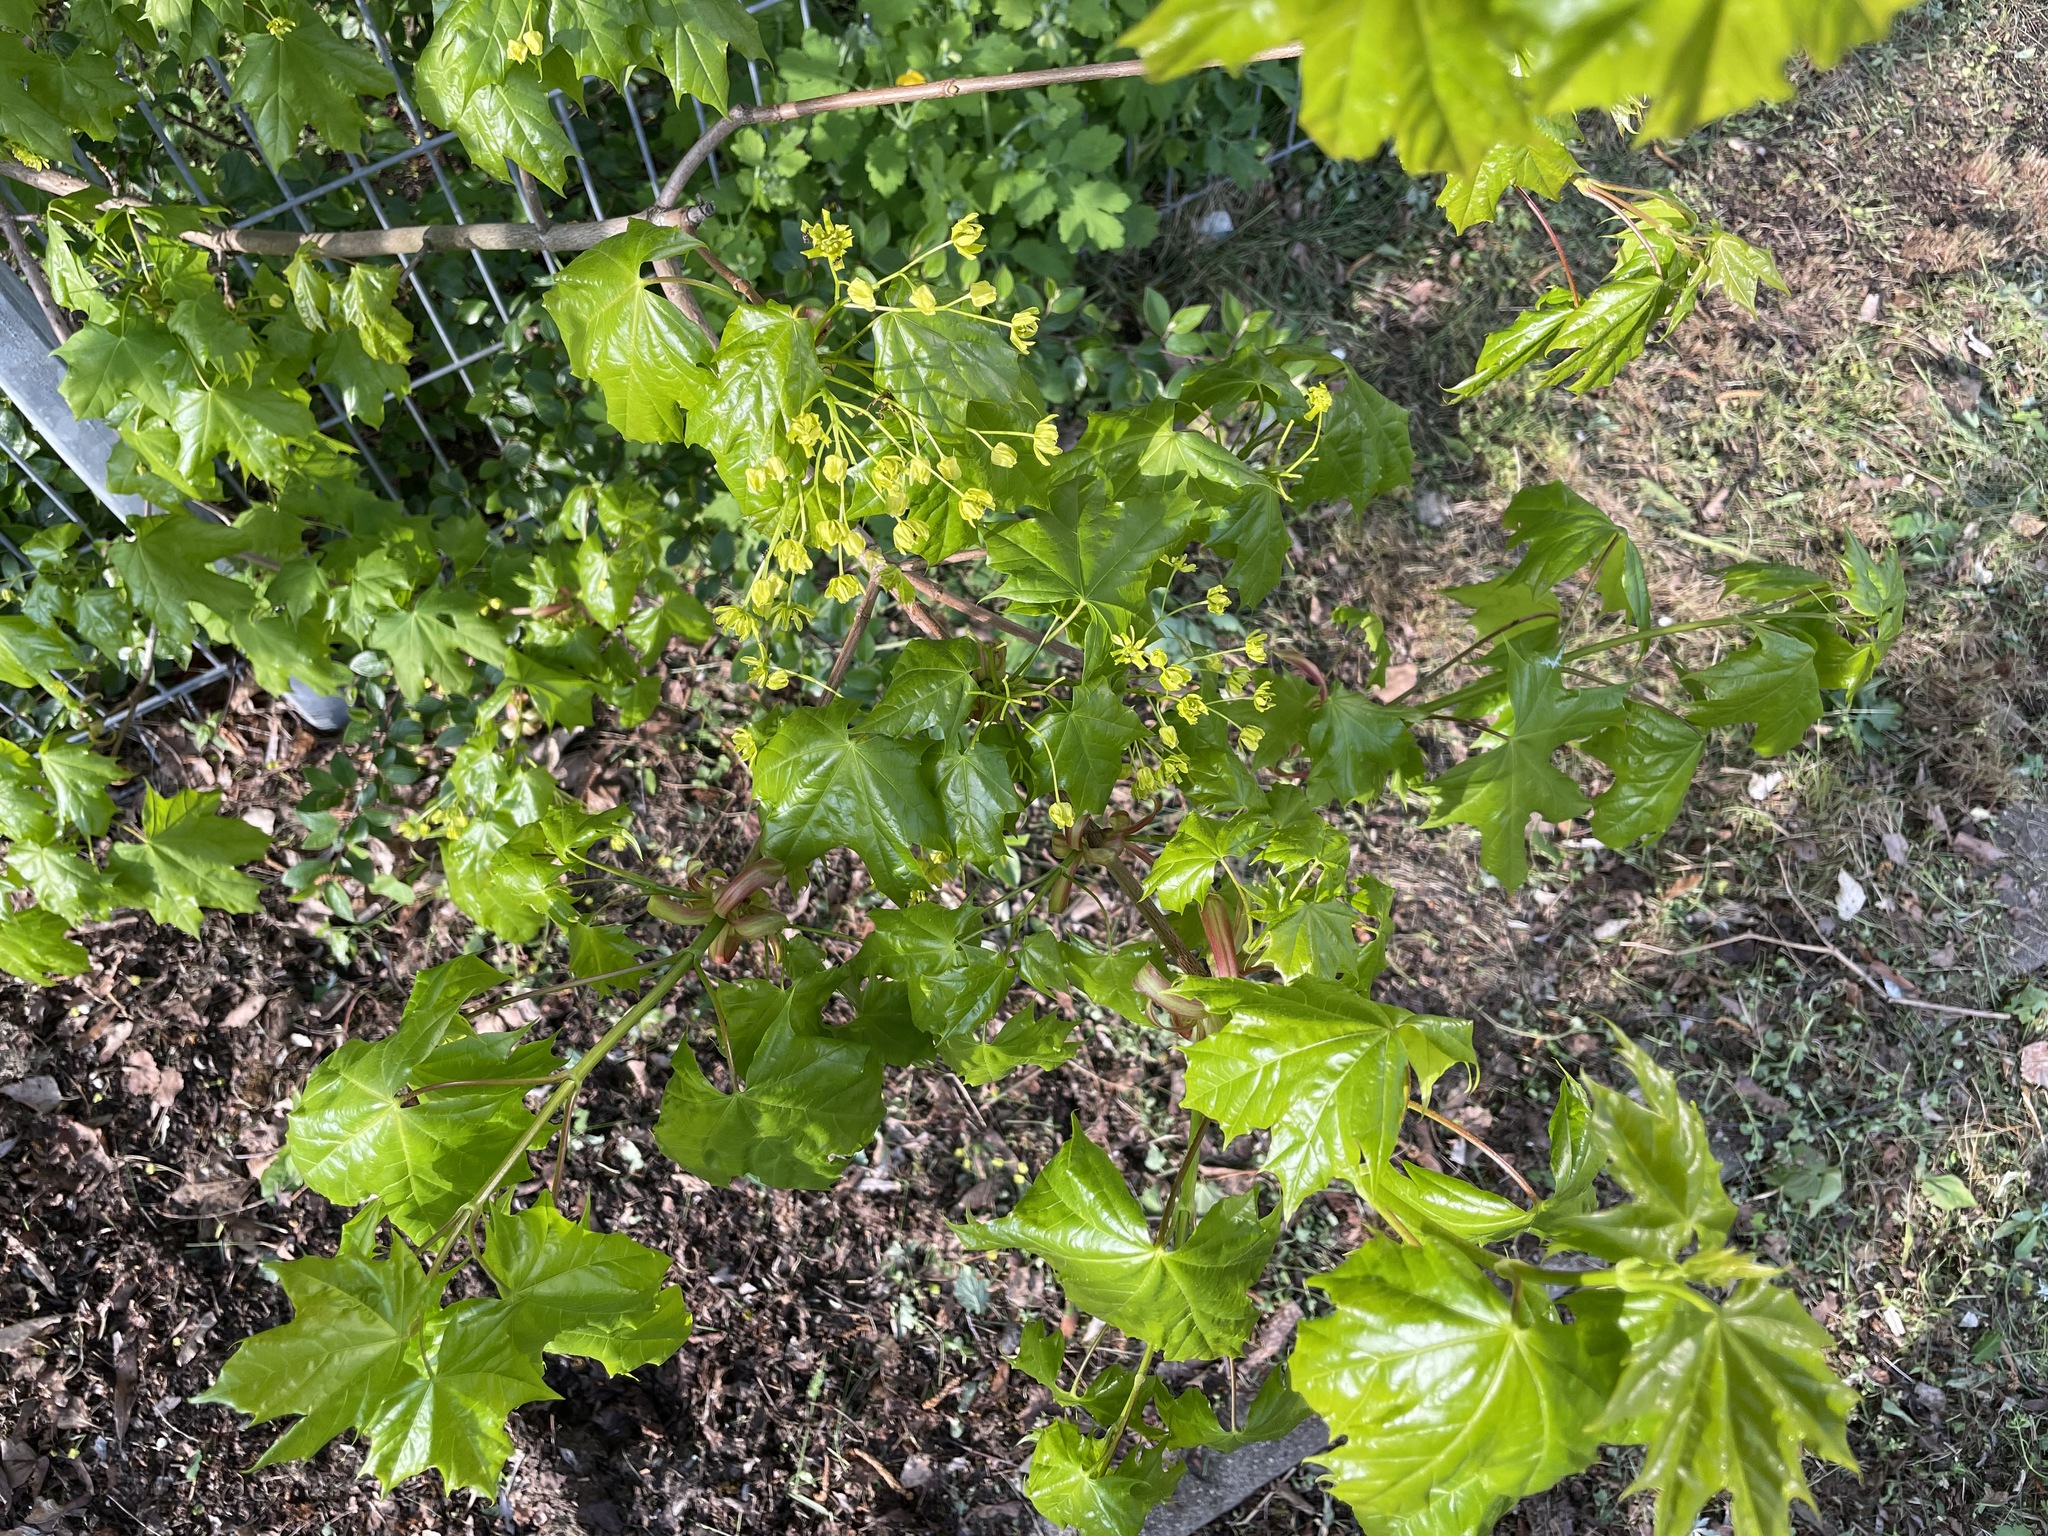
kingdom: Plantae
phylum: Tracheophyta
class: Magnoliopsida
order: Sapindales
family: Sapindaceae
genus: Acer
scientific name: Acer platanoides
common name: Norway maple
